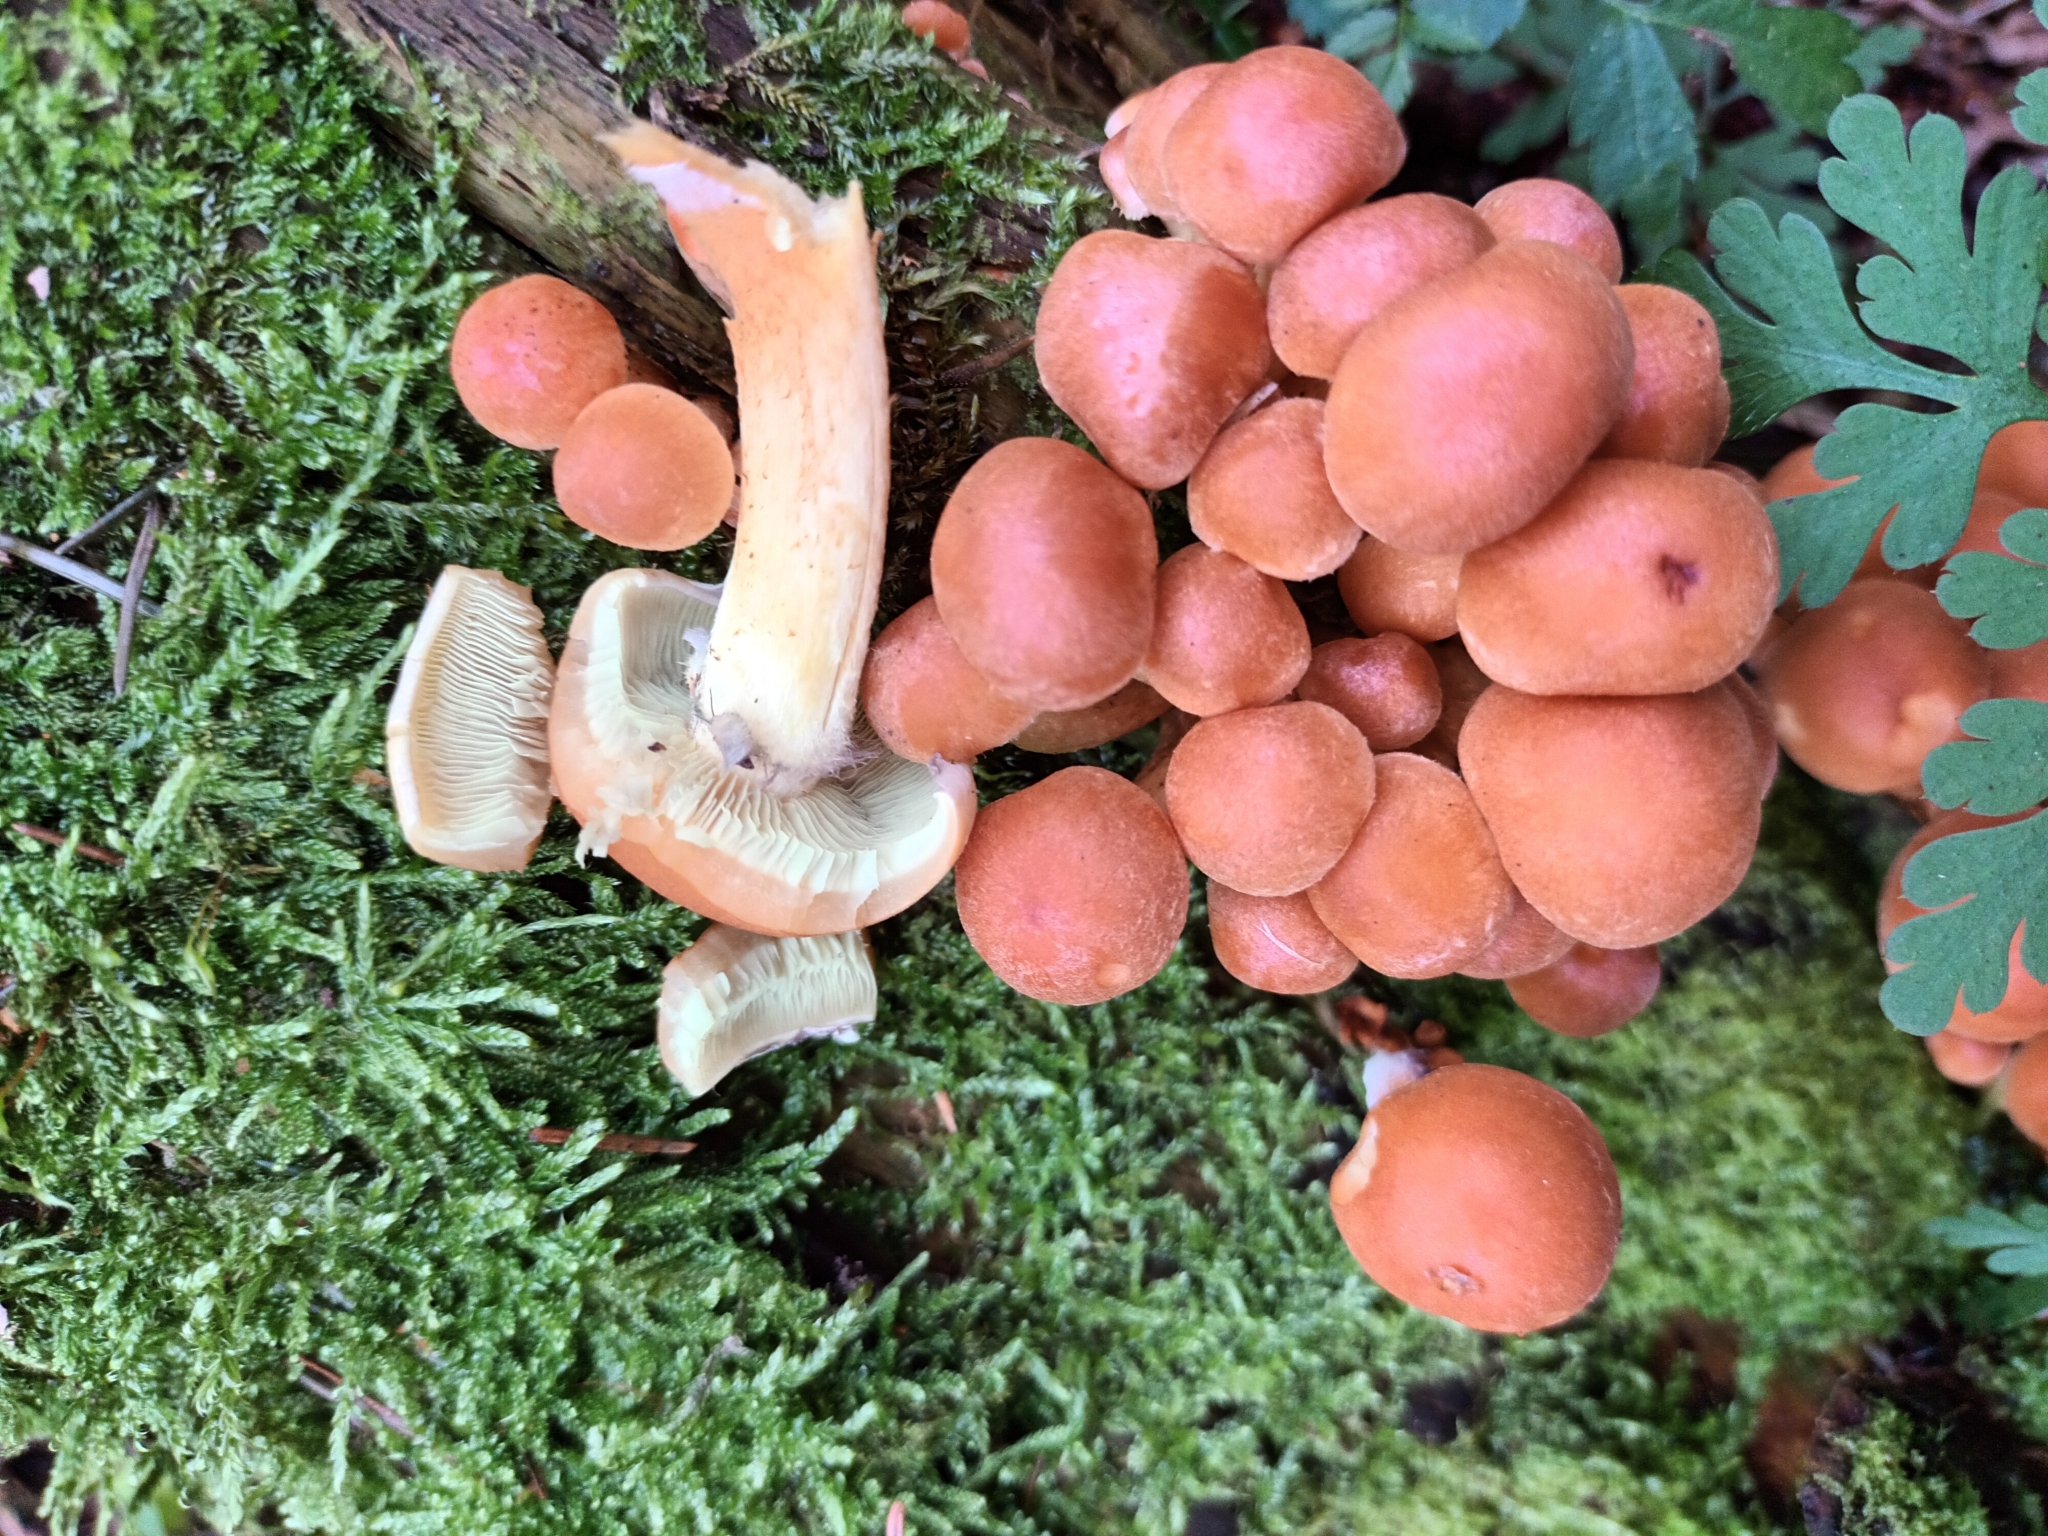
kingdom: Fungi
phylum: Basidiomycota
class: Agaricomycetes
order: Agaricales
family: Strophariaceae
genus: Hypholoma
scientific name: Hypholoma lateritium
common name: Brick caps
